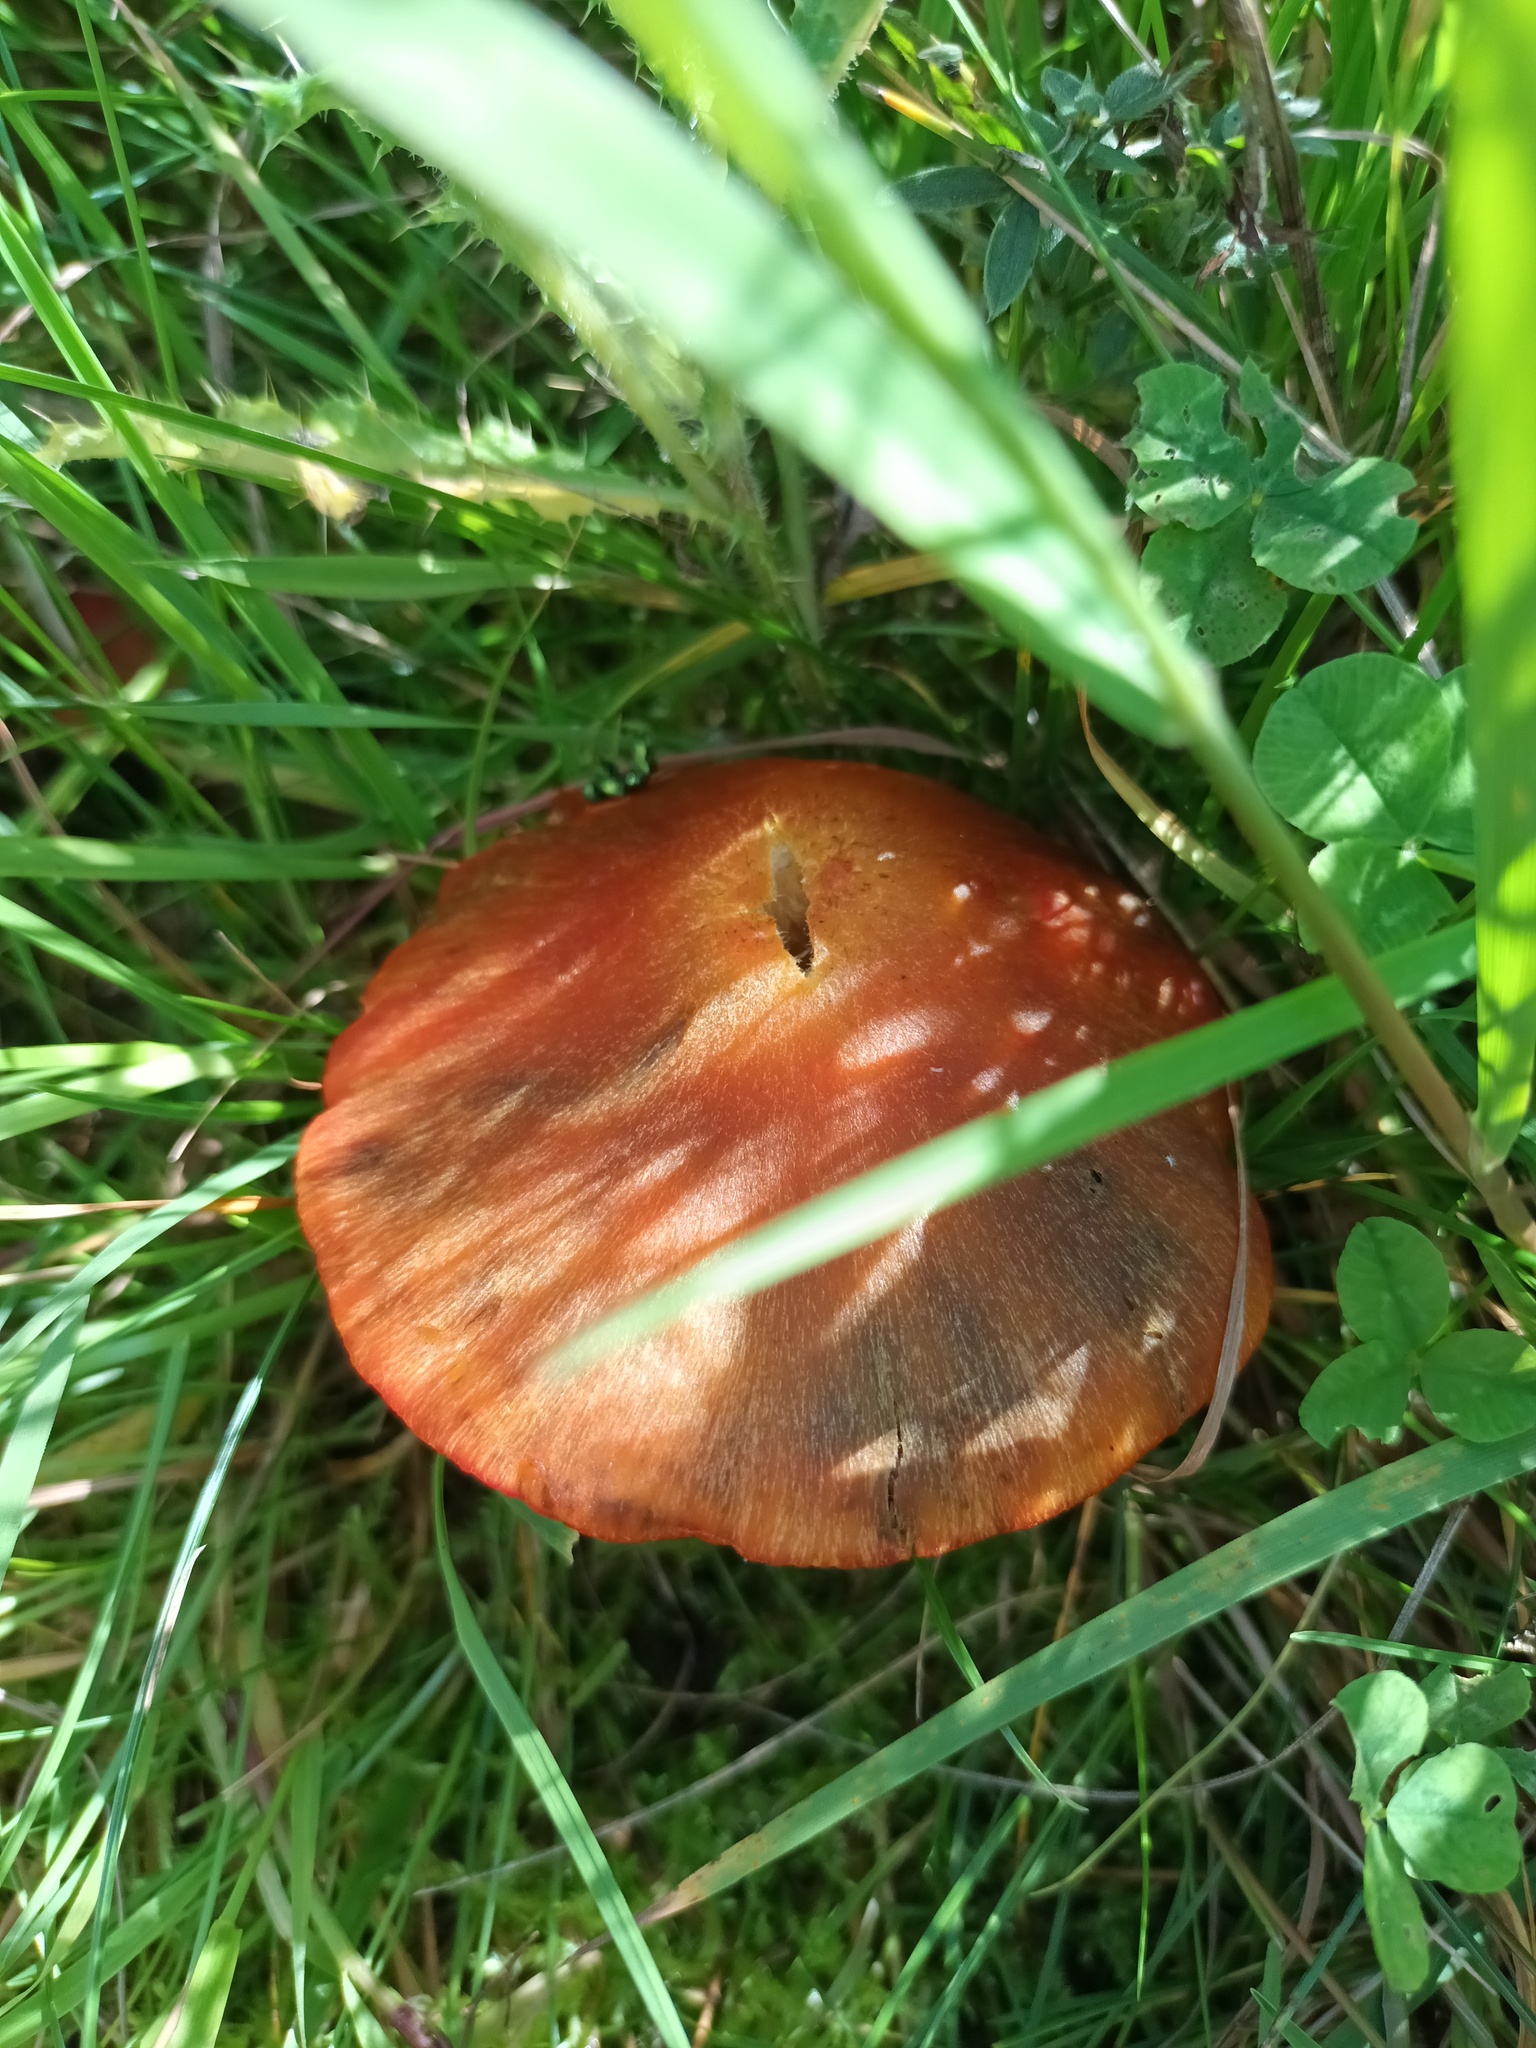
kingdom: Fungi
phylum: Basidiomycota
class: Agaricomycetes
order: Agaricales
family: Hygrophoraceae
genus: Hygrocybe
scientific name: Hygrocybe conica
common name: Blackening wax-cap
